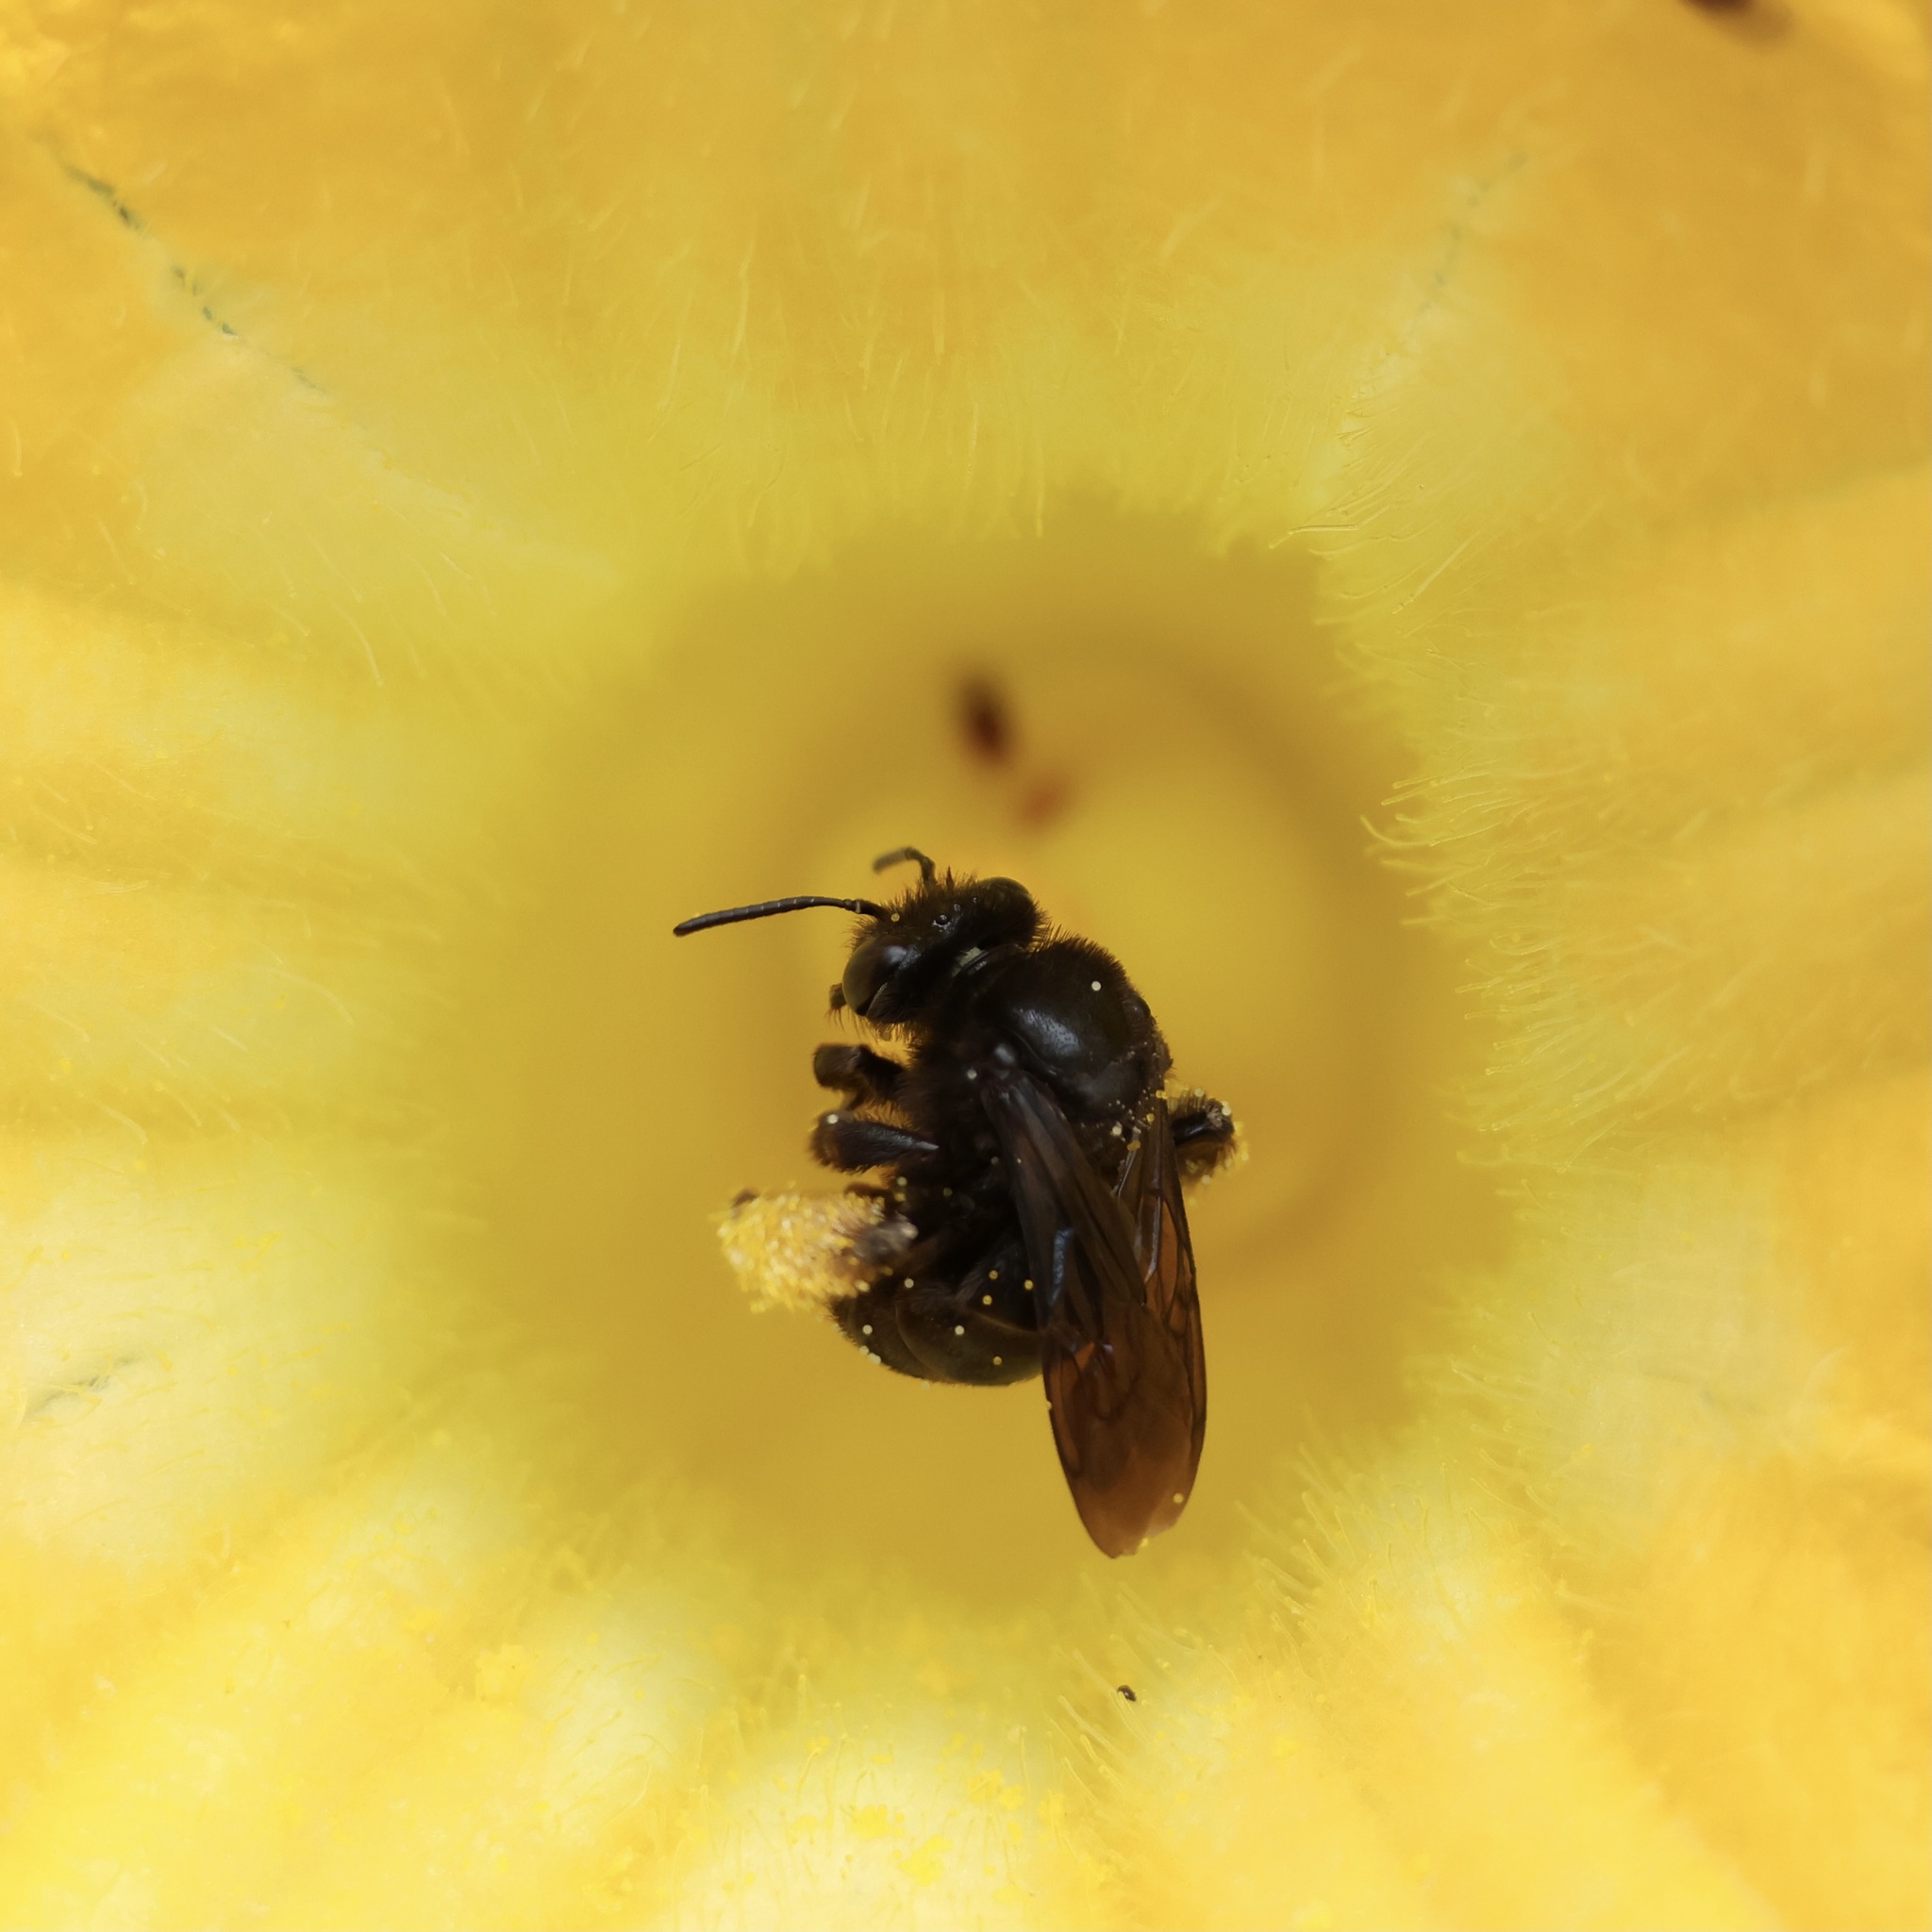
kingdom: Animalia
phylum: Arthropoda
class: Insecta
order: Hymenoptera
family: Apidae
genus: Melissodes
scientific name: Melissodes bimaculatus
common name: Two-spotted long-horned bee
